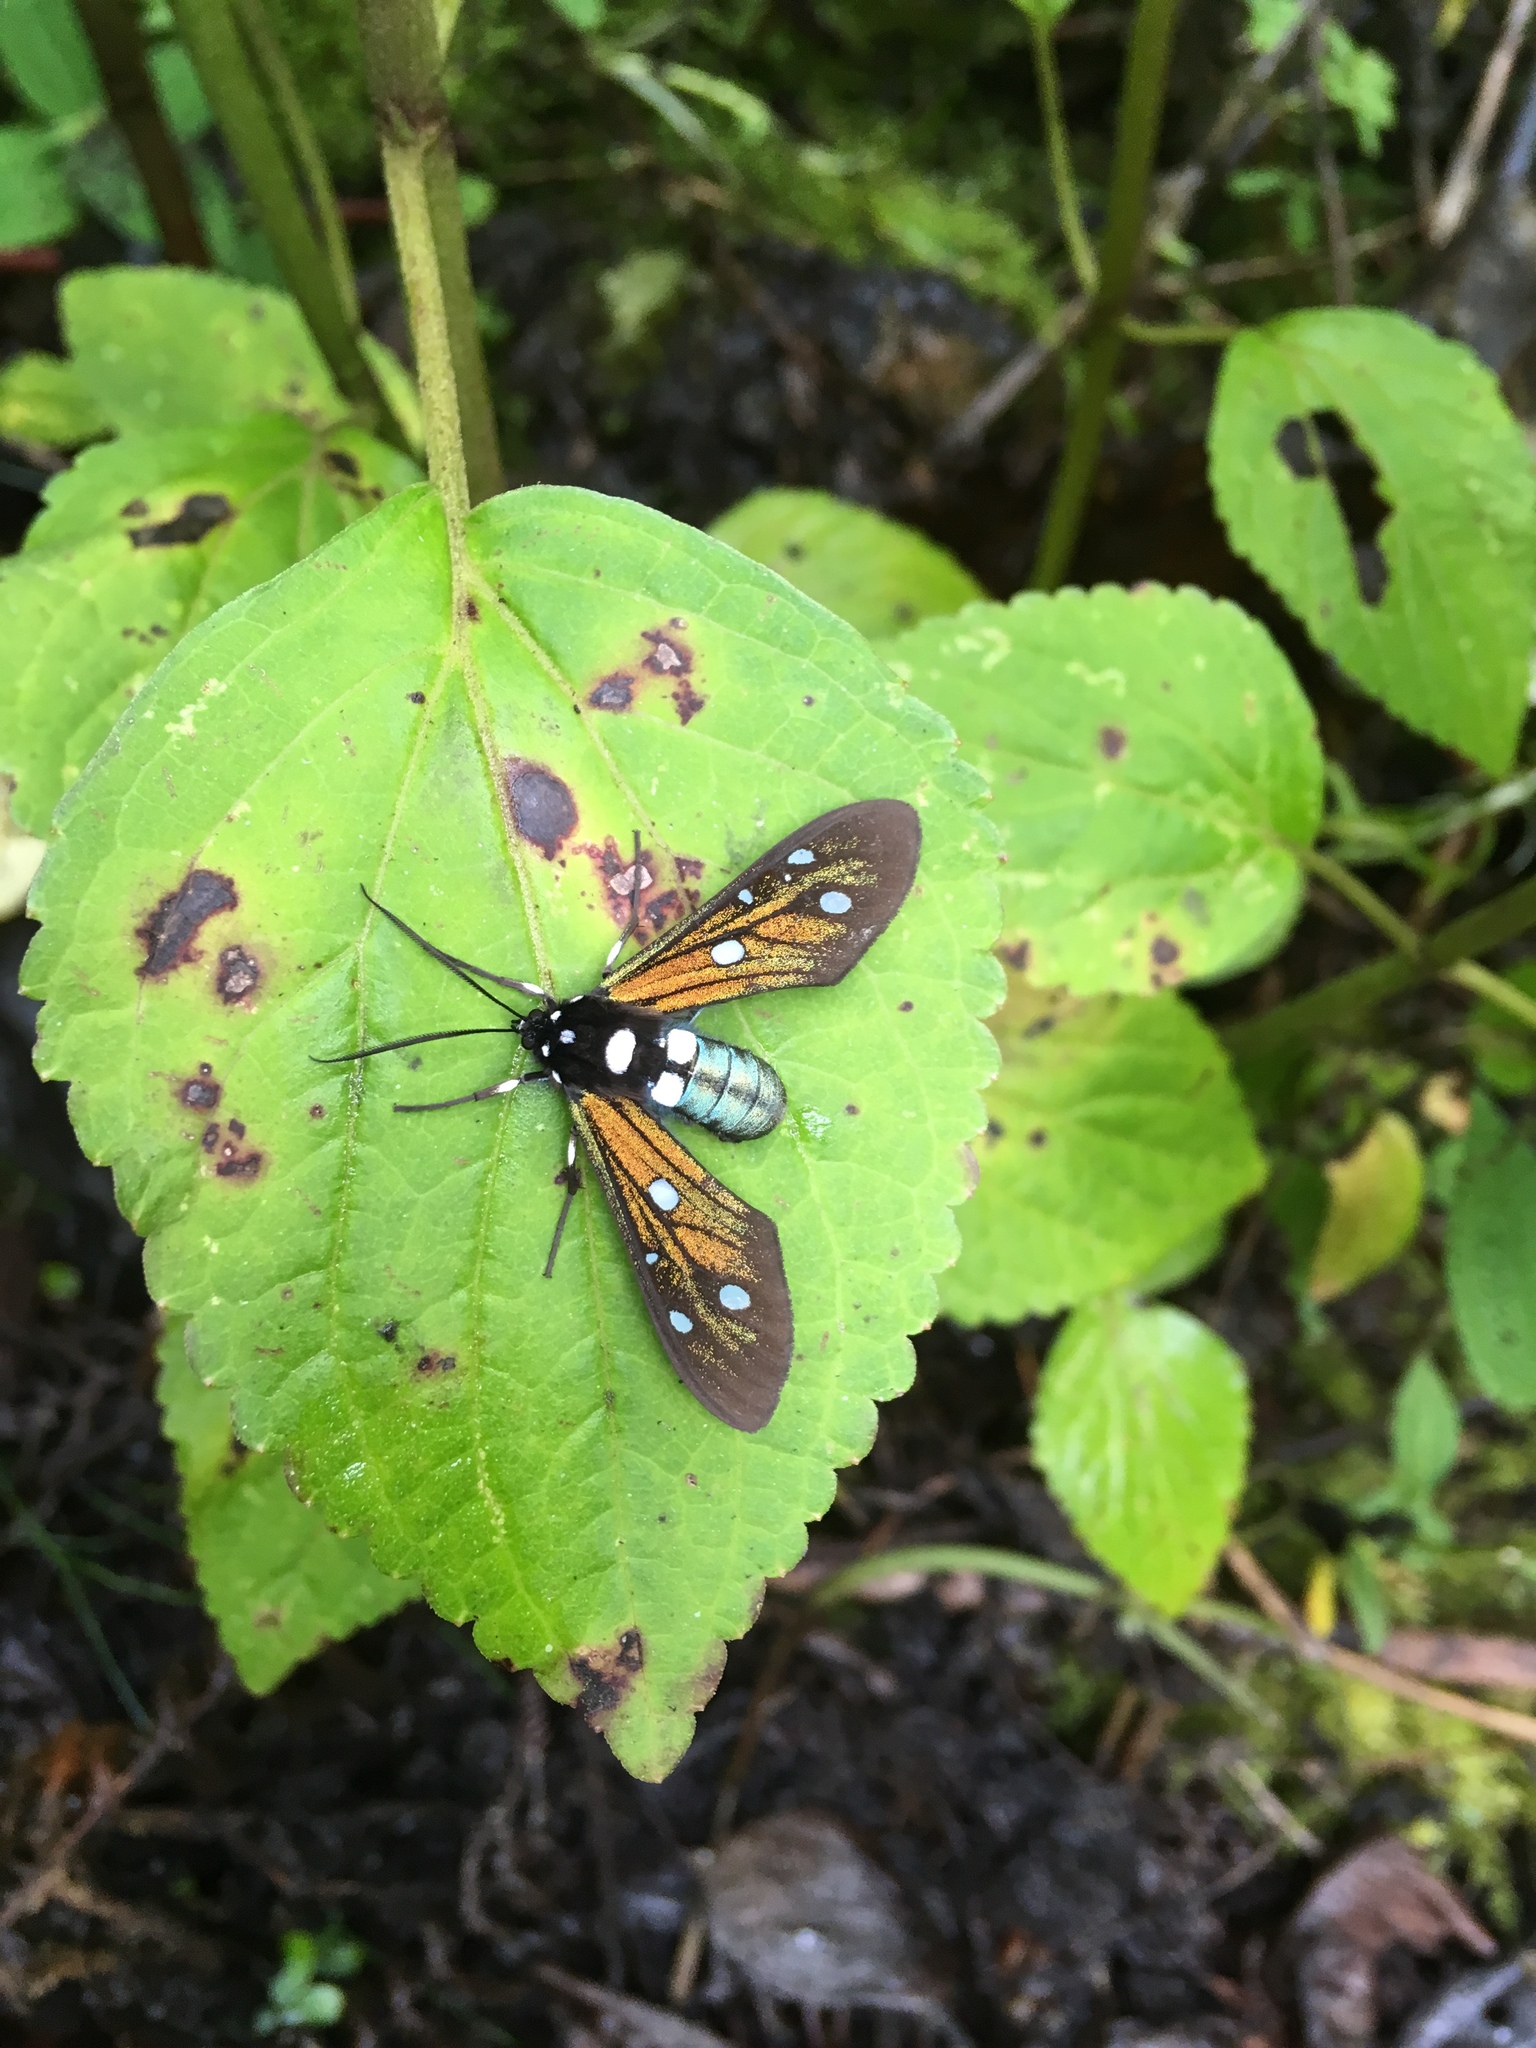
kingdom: Animalia
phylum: Arthropoda
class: Insecta
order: Lepidoptera
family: Erebidae
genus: Phaio
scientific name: Phaio salmoni
